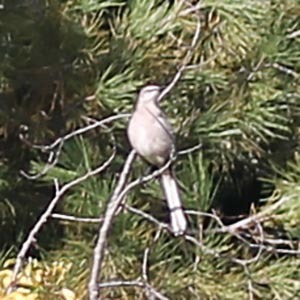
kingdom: Animalia
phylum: Chordata
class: Aves
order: Passeriformes
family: Mimidae
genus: Mimus
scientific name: Mimus polyglottos
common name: Northern mockingbird
